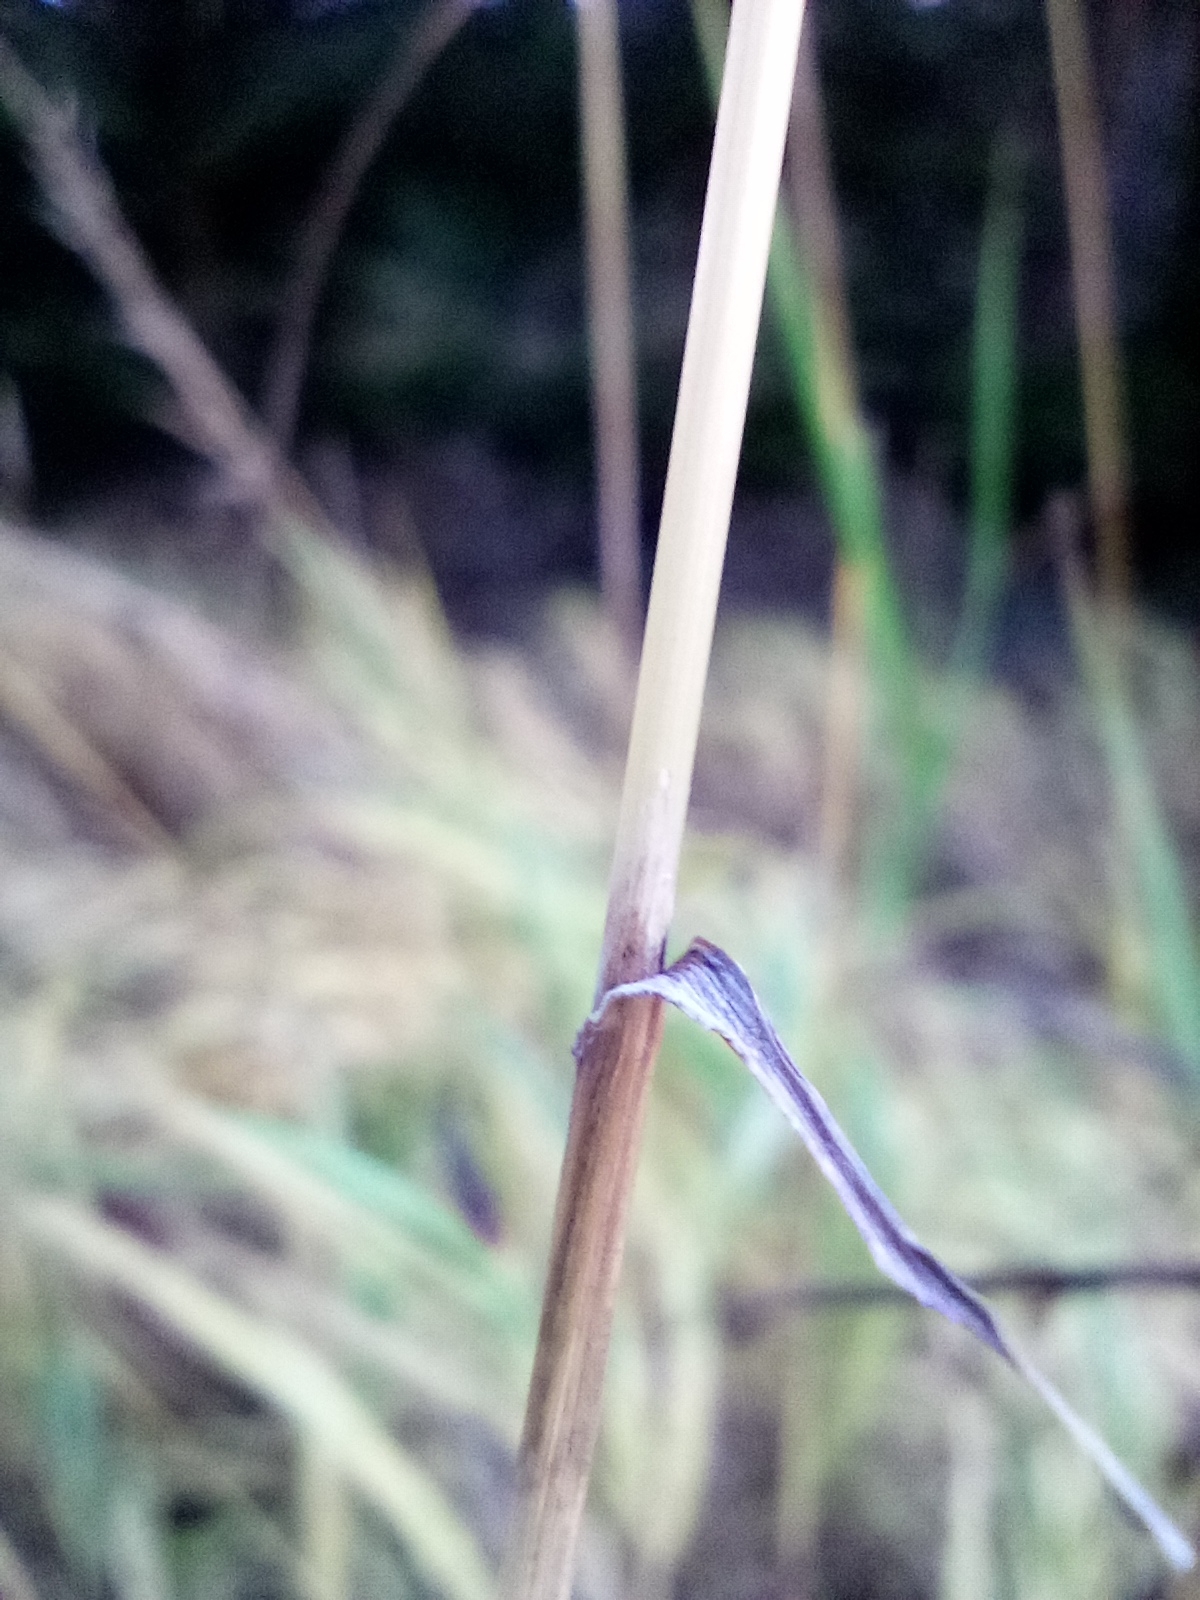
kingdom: Plantae
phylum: Tracheophyta
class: Liliopsida
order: Poales
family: Poaceae
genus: Calamagrostis
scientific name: Calamagrostis villosa
